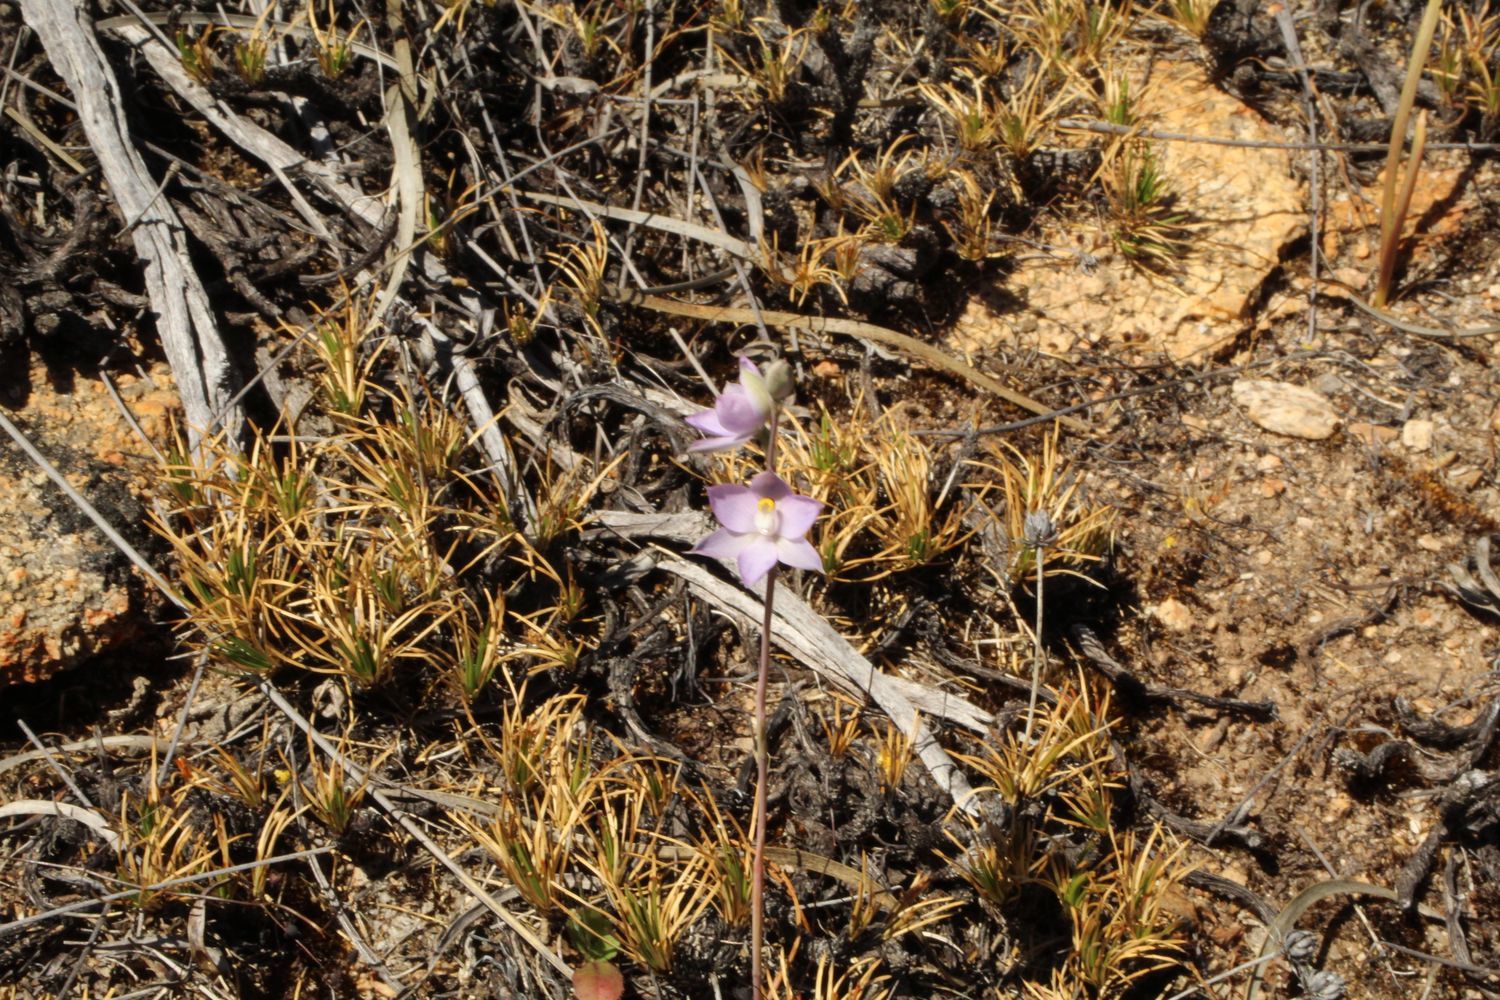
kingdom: Plantae
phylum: Tracheophyta
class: Liliopsida
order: Asparagales
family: Orchidaceae
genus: Thelymitra
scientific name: Thelymitra petrophila
